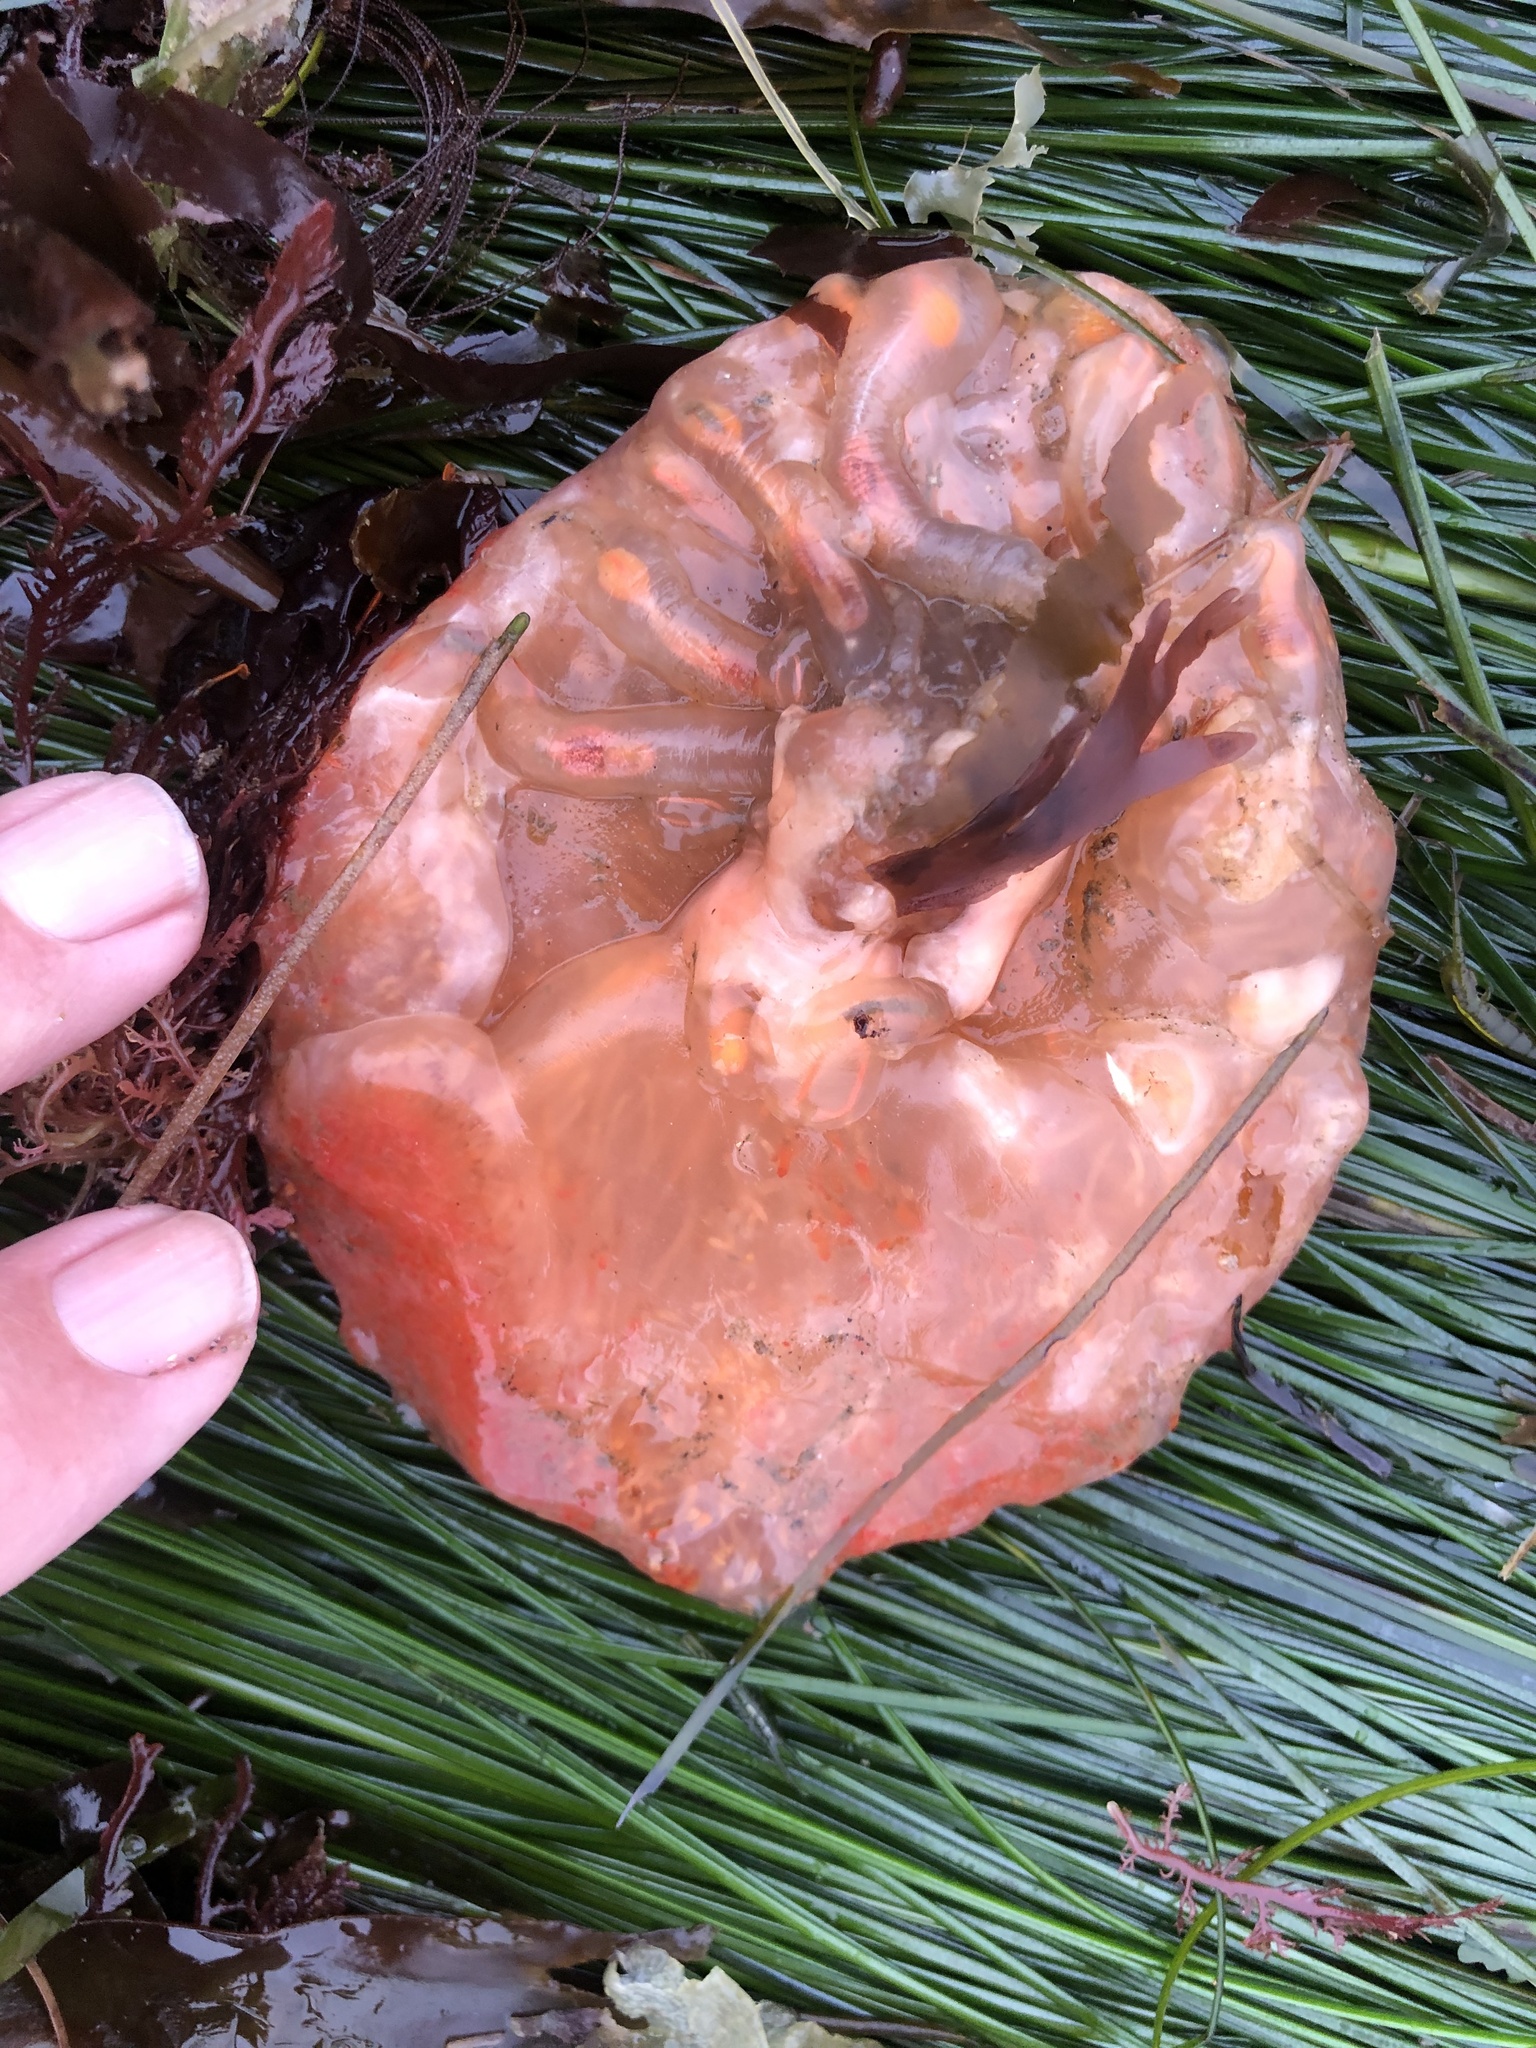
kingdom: Animalia
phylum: Chordata
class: Ascidiacea
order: Aplousobranchia
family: Clavelinidae
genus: Clavelina
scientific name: Clavelina huntsmani
